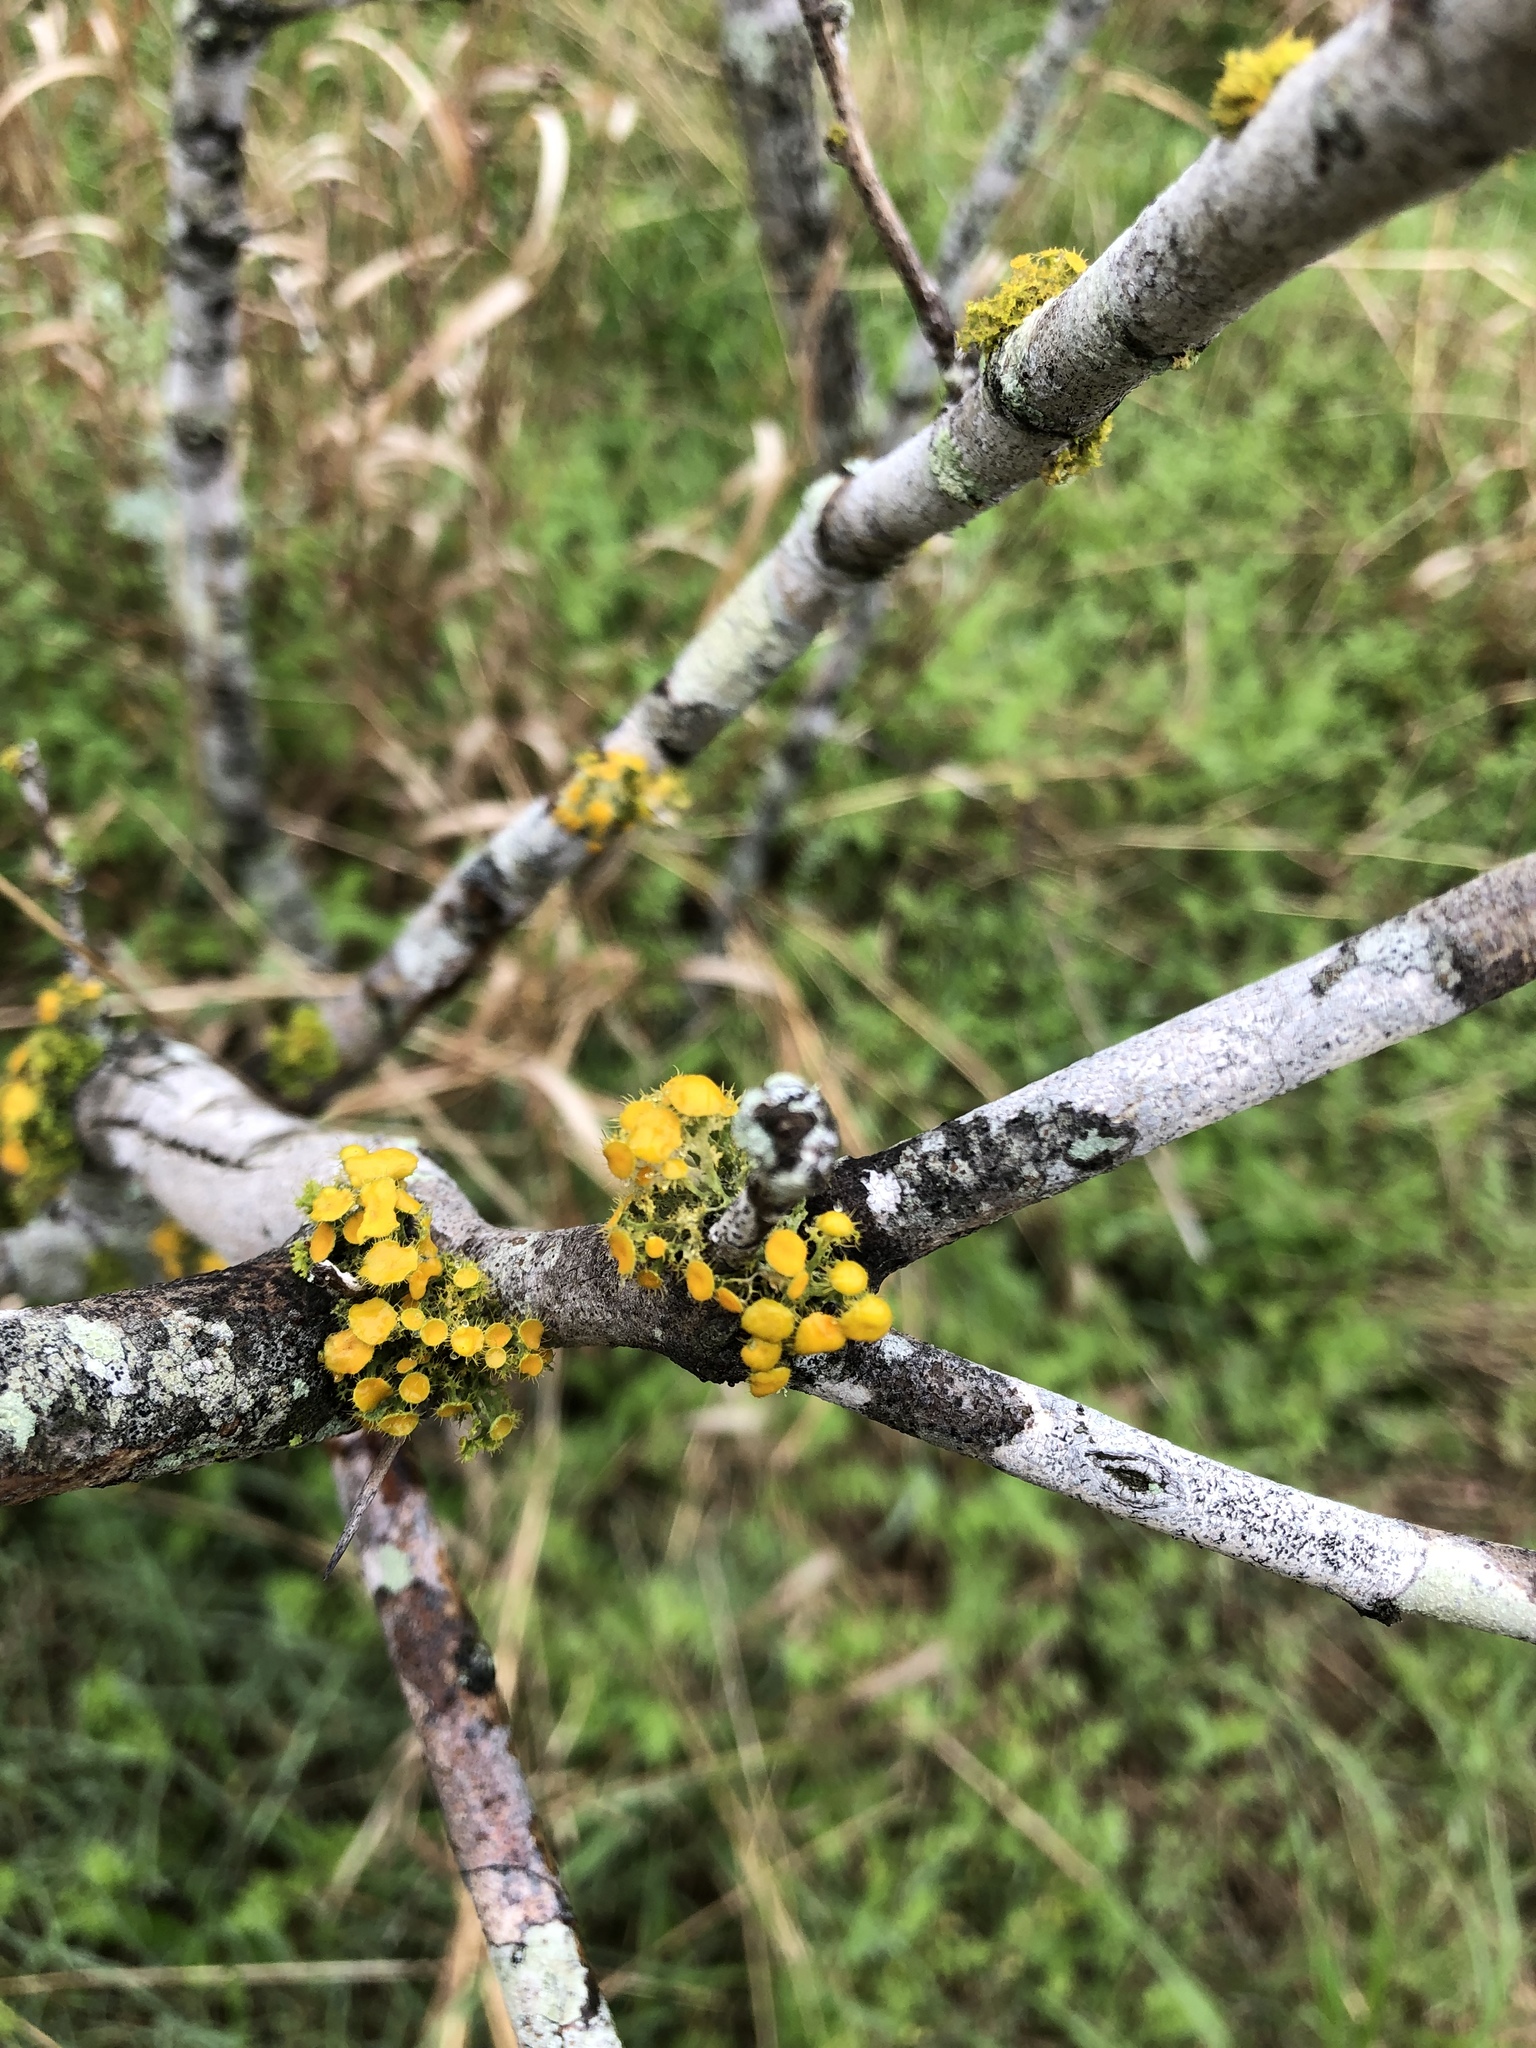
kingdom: Fungi
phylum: Ascomycota
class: Lecanoromycetes
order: Teloschistales
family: Teloschistaceae
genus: Niorma
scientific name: Niorma chrysophthalma
